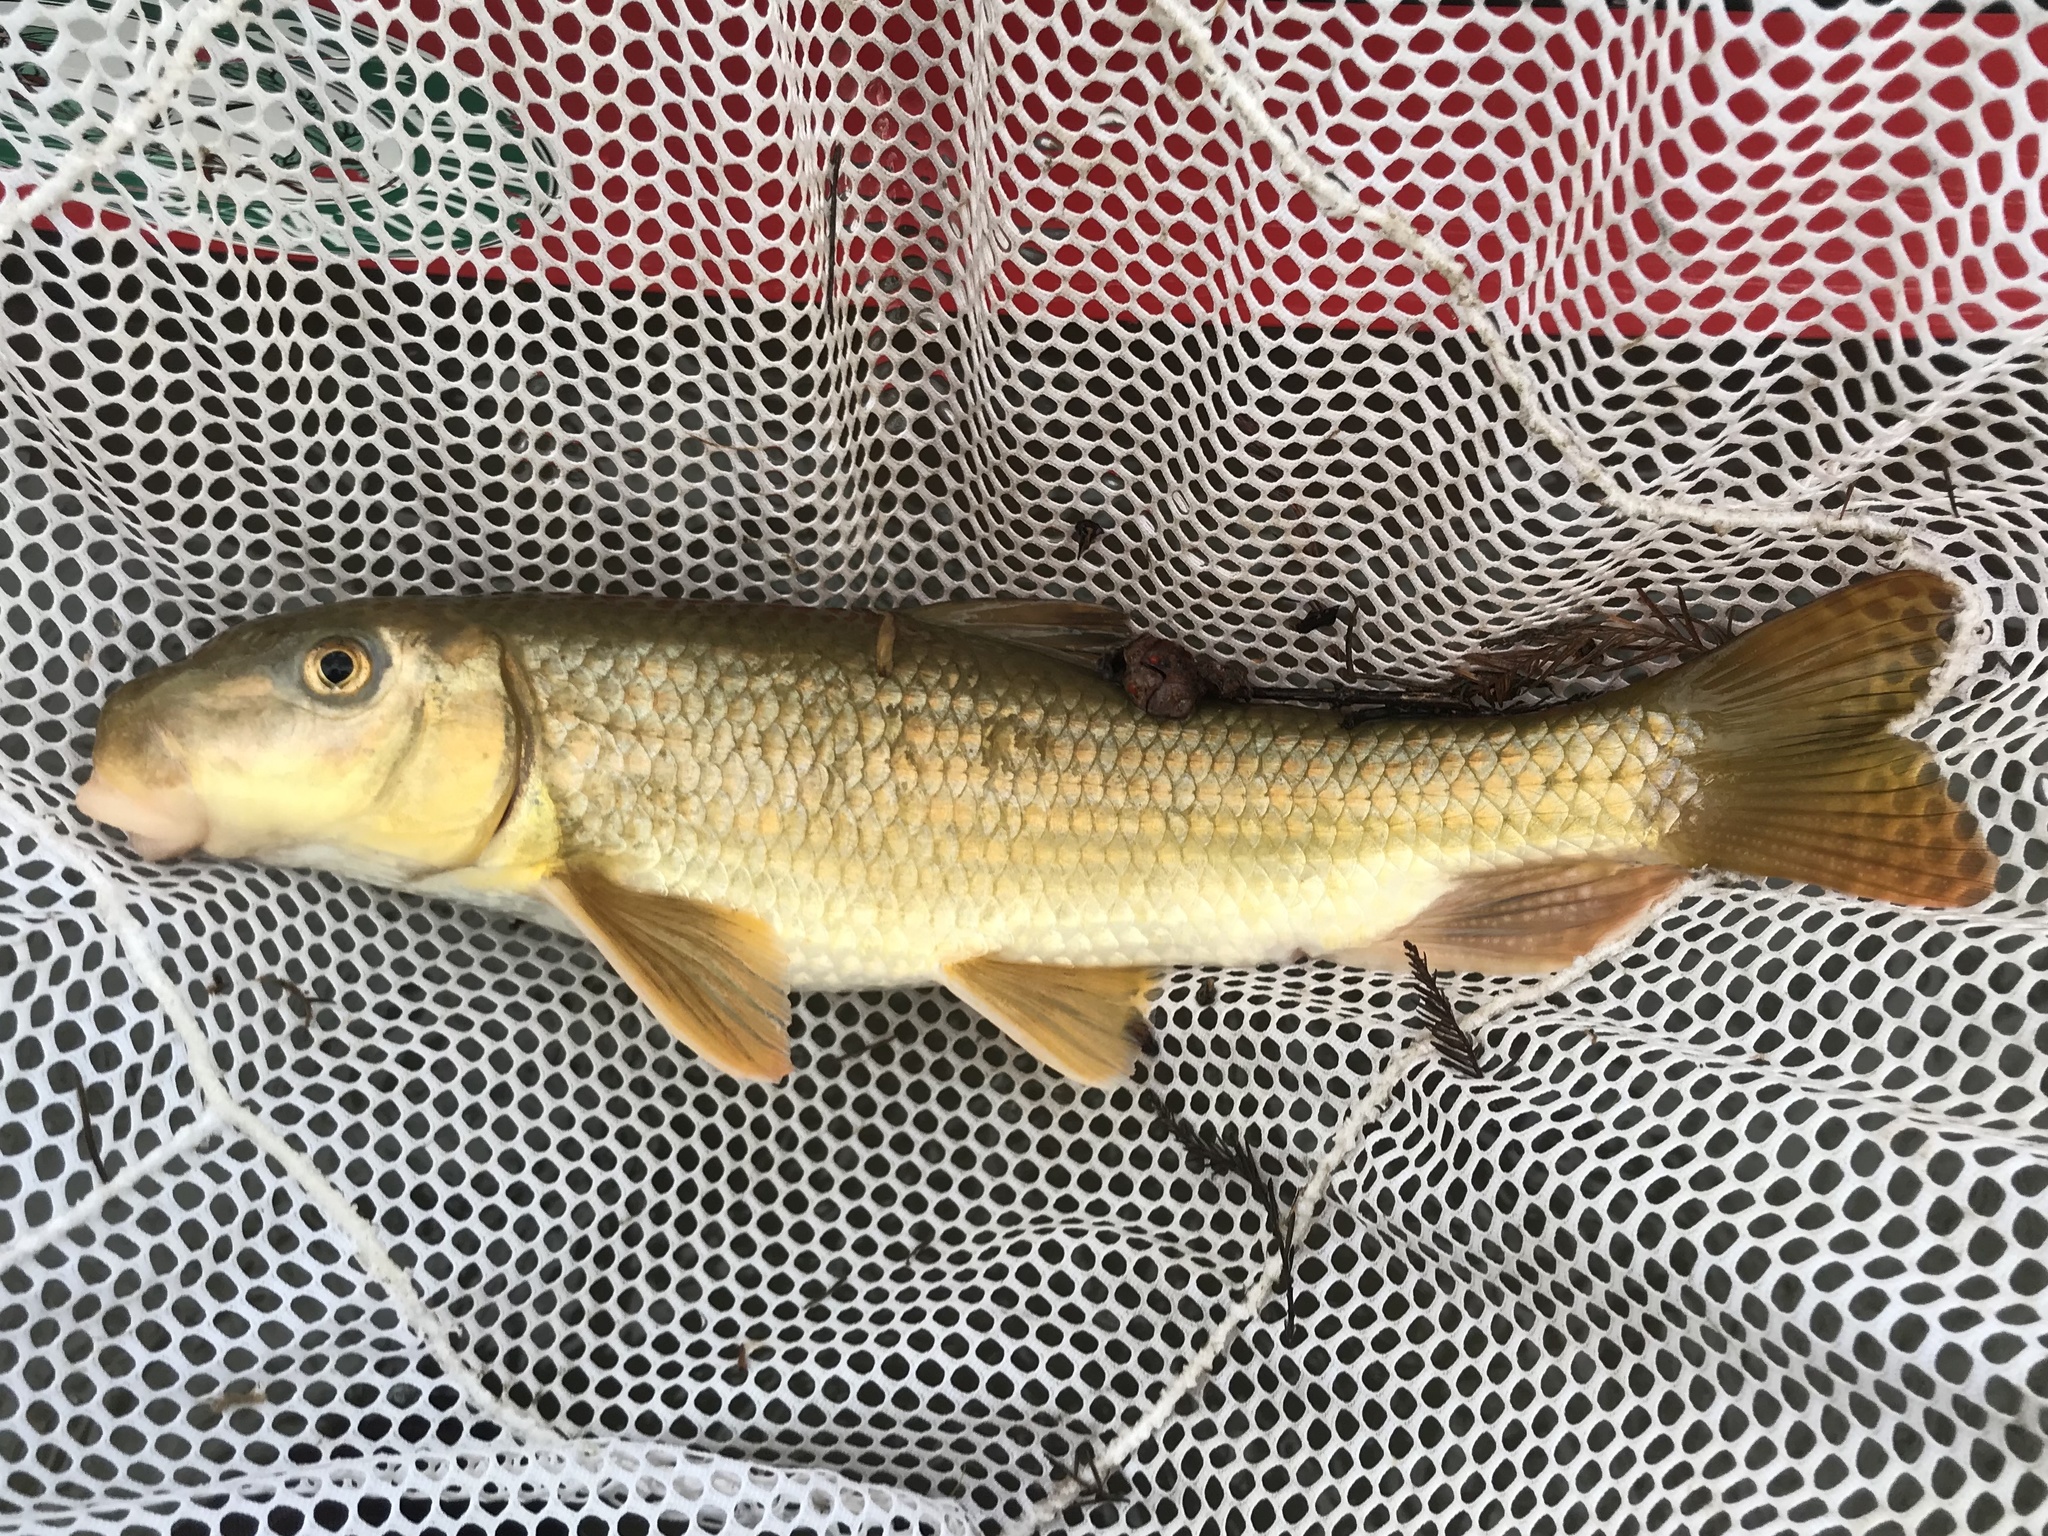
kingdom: Animalia
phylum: Chordata
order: Cypriniformes
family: Catostomidae
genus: Moxostoma
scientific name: Moxostoma congestum
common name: Gray redhorse
